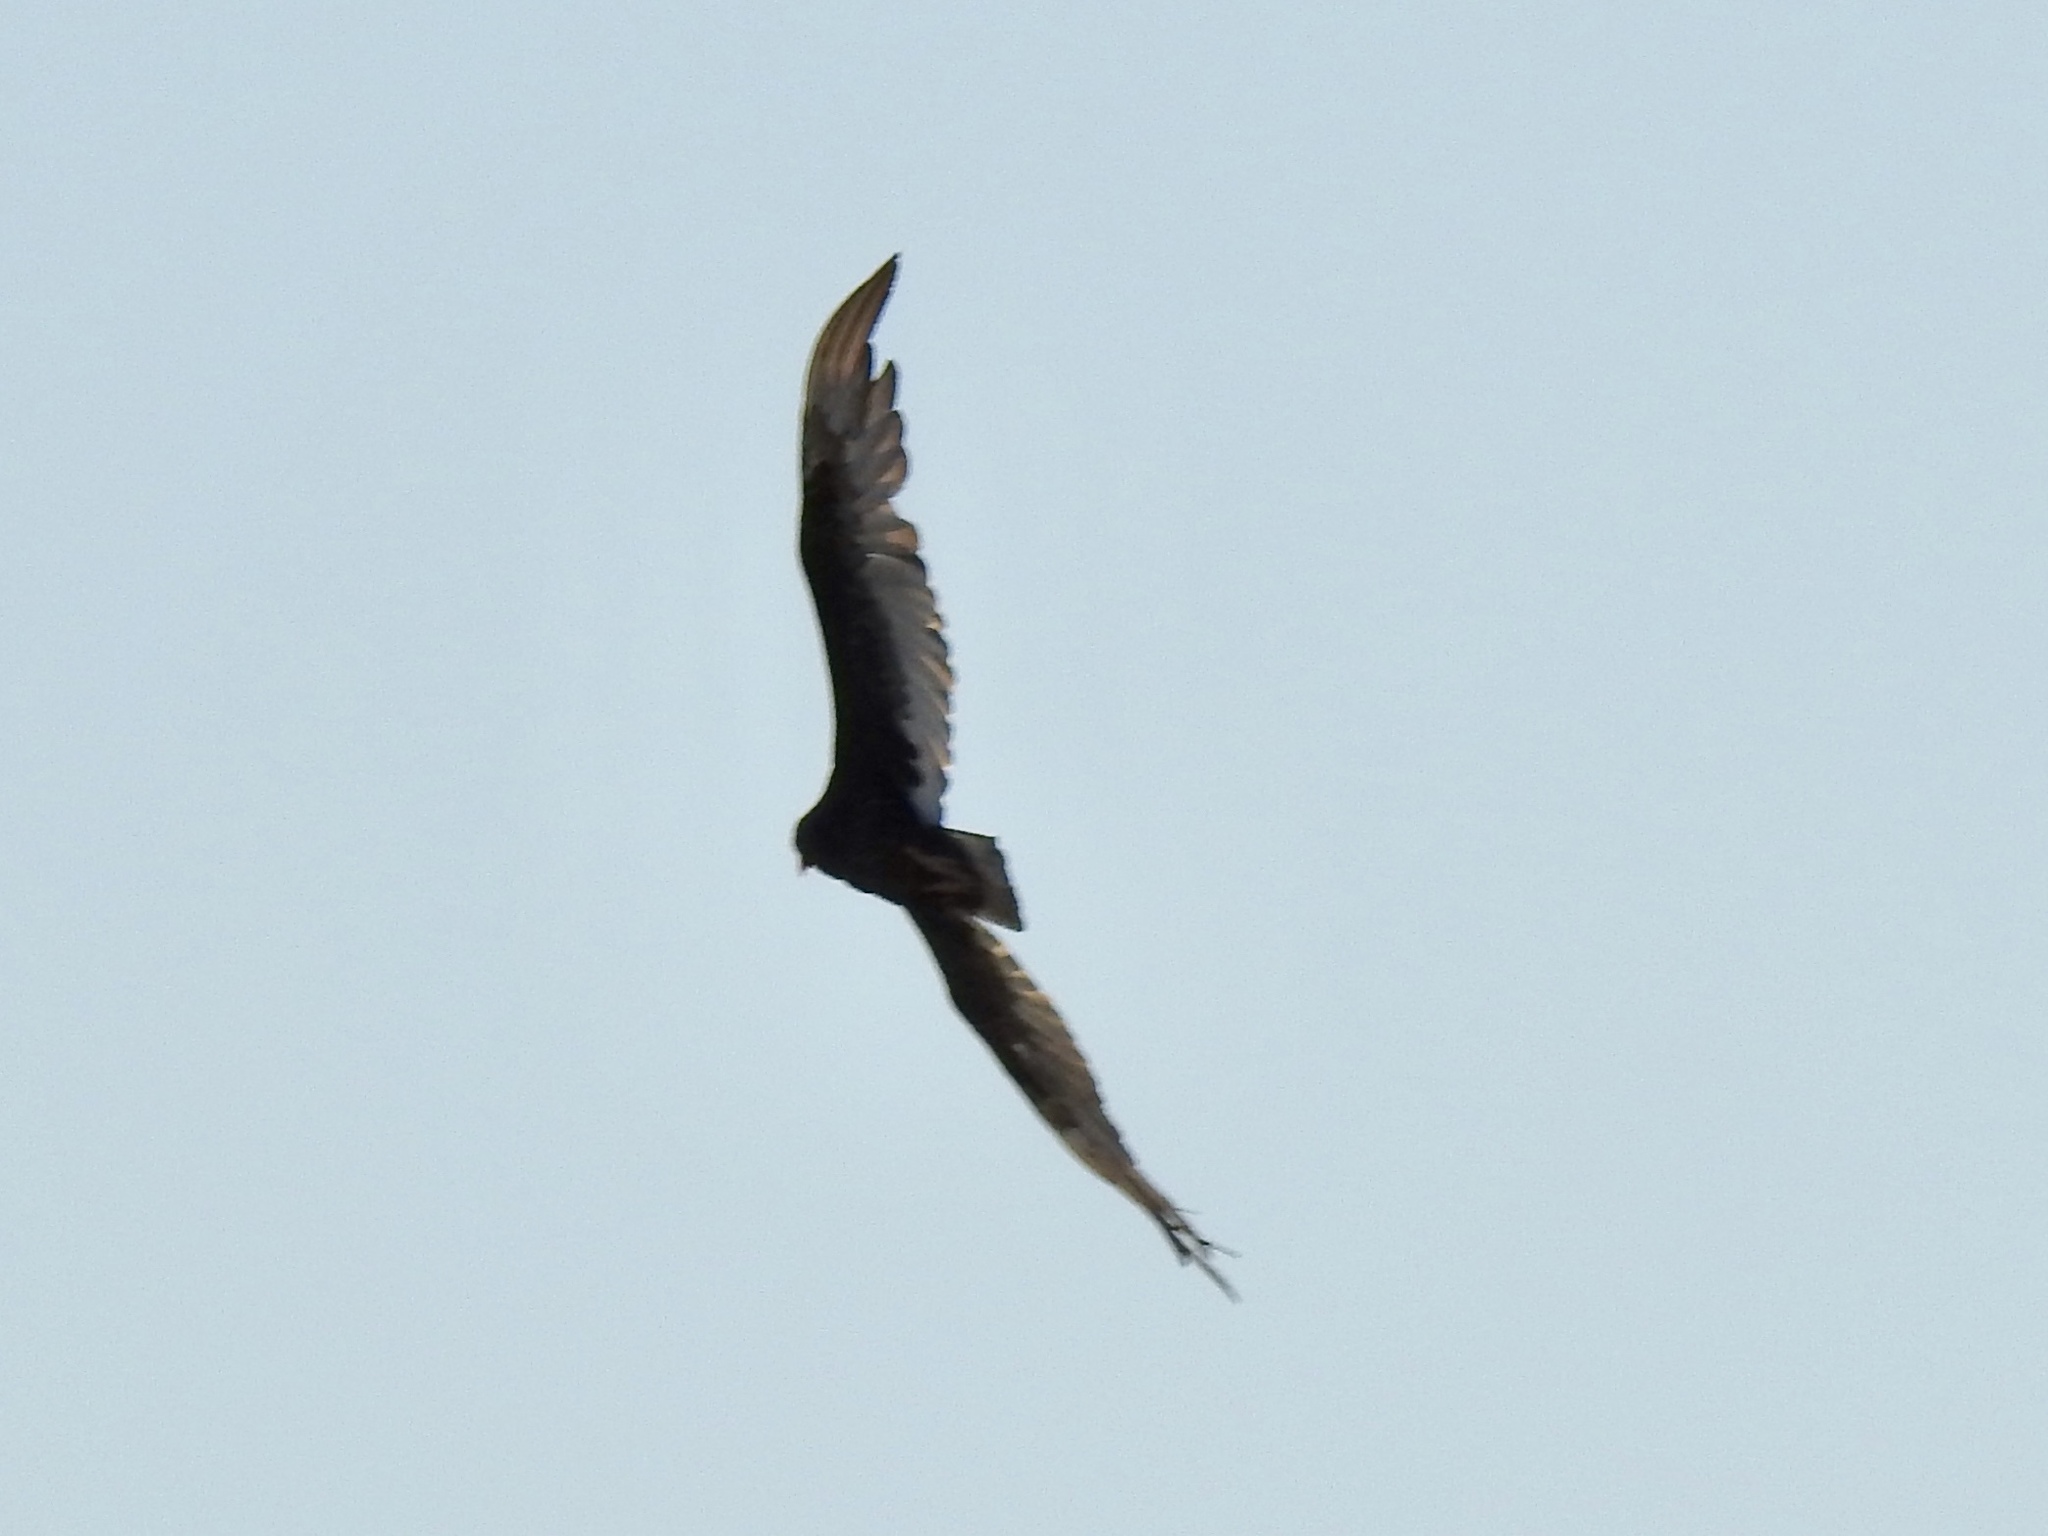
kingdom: Animalia
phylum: Chordata
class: Aves
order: Accipitriformes
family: Cathartidae
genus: Cathartes
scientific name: Cathartes aura
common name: Turkey vulture
